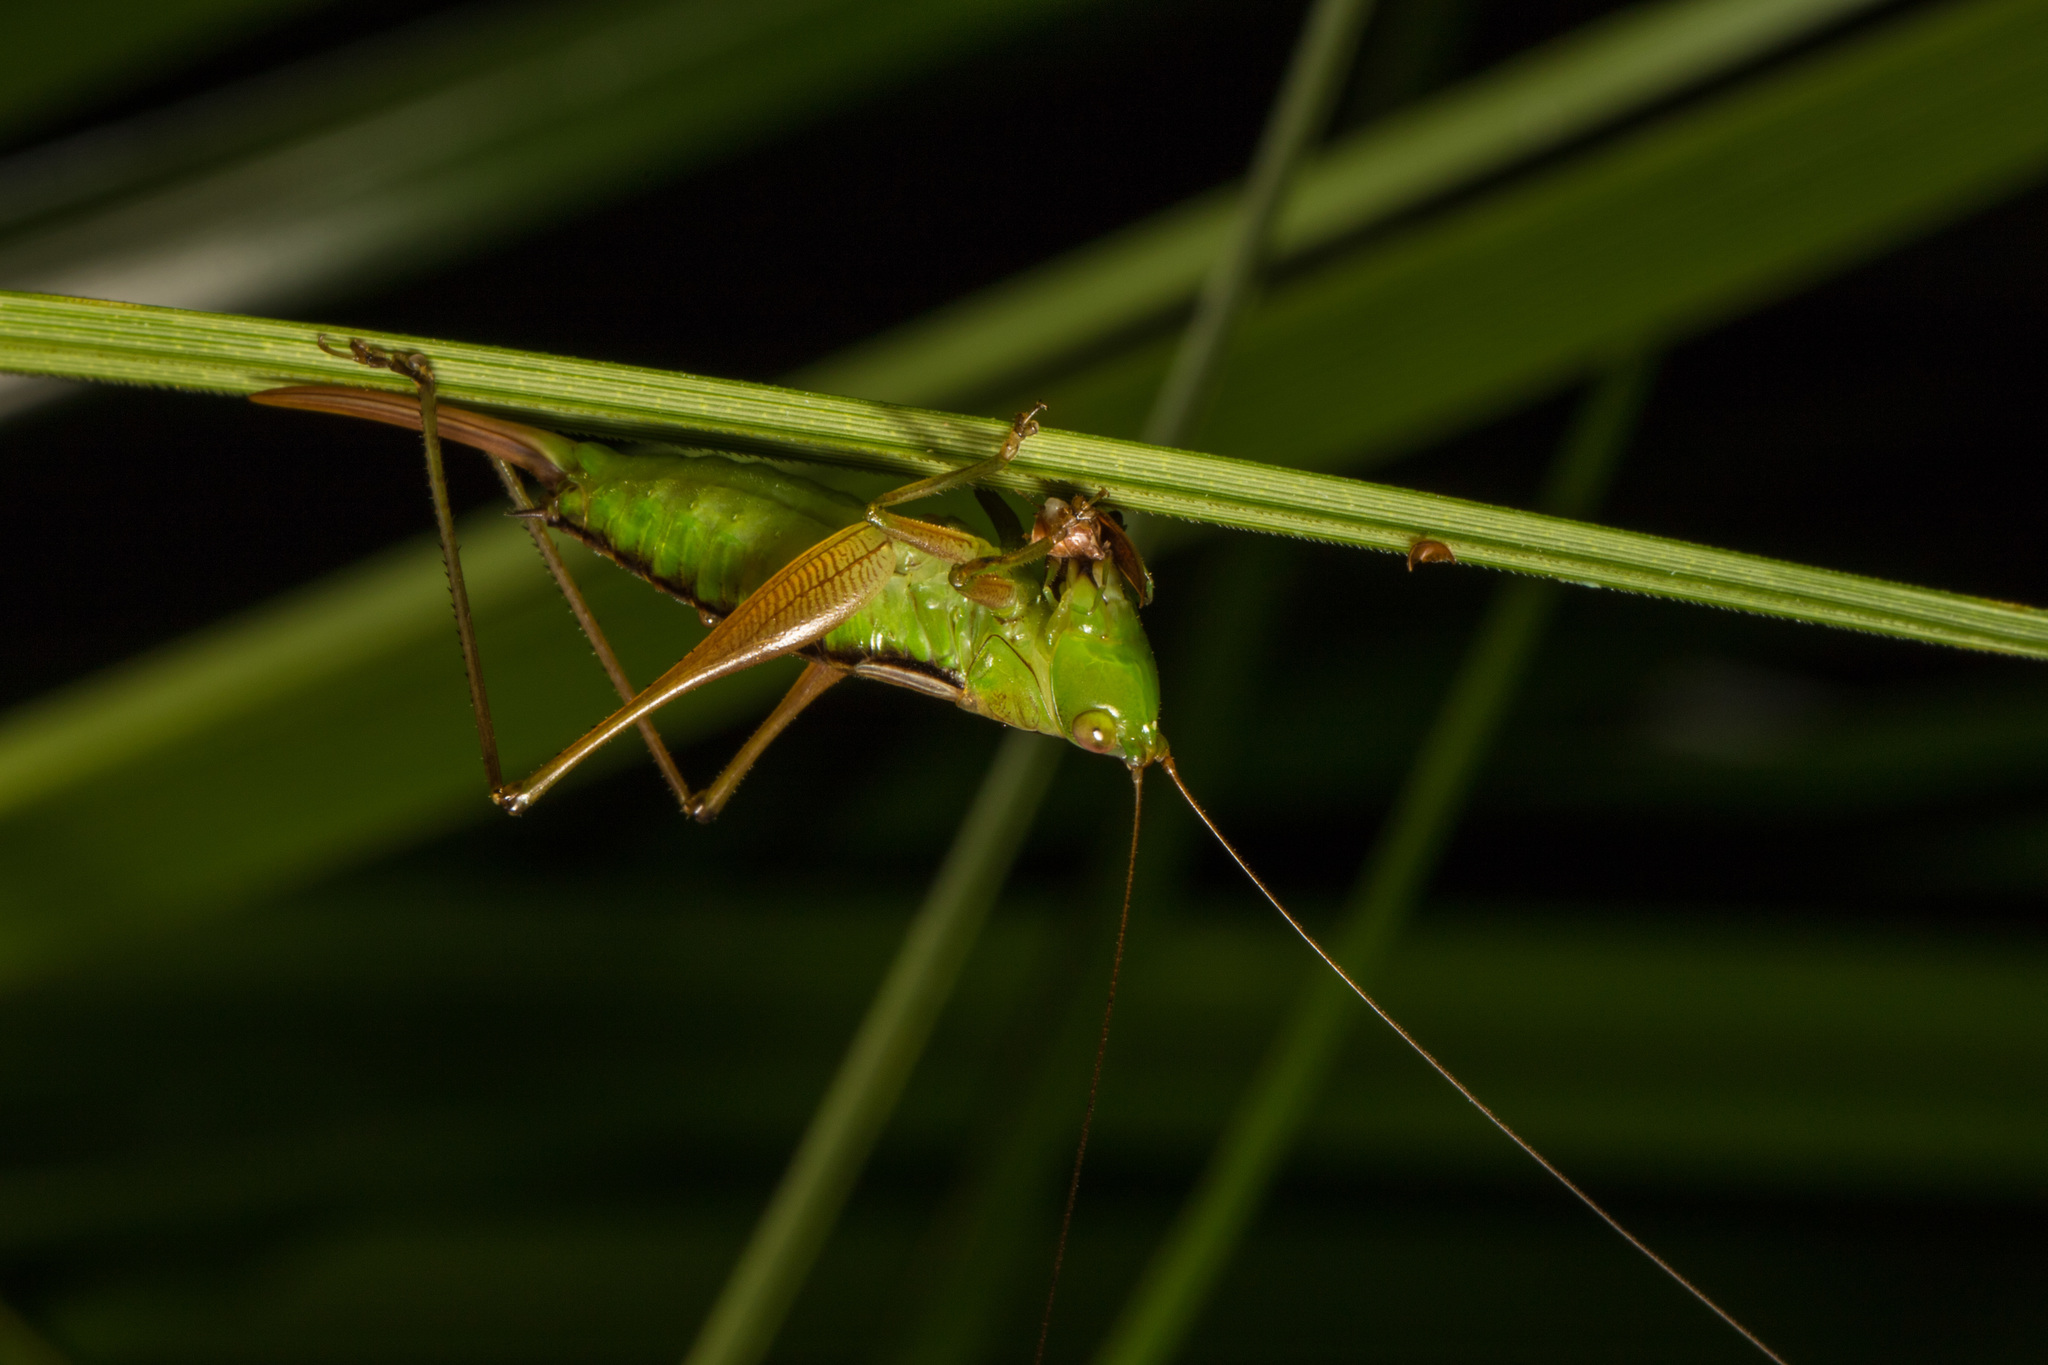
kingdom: Animalia
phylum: Arthropoda
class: Insecta
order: Orthoptera
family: Tettigoniidae
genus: Conocephalus
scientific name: Conocephalus semivittatus
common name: Blackish meadow katydid
